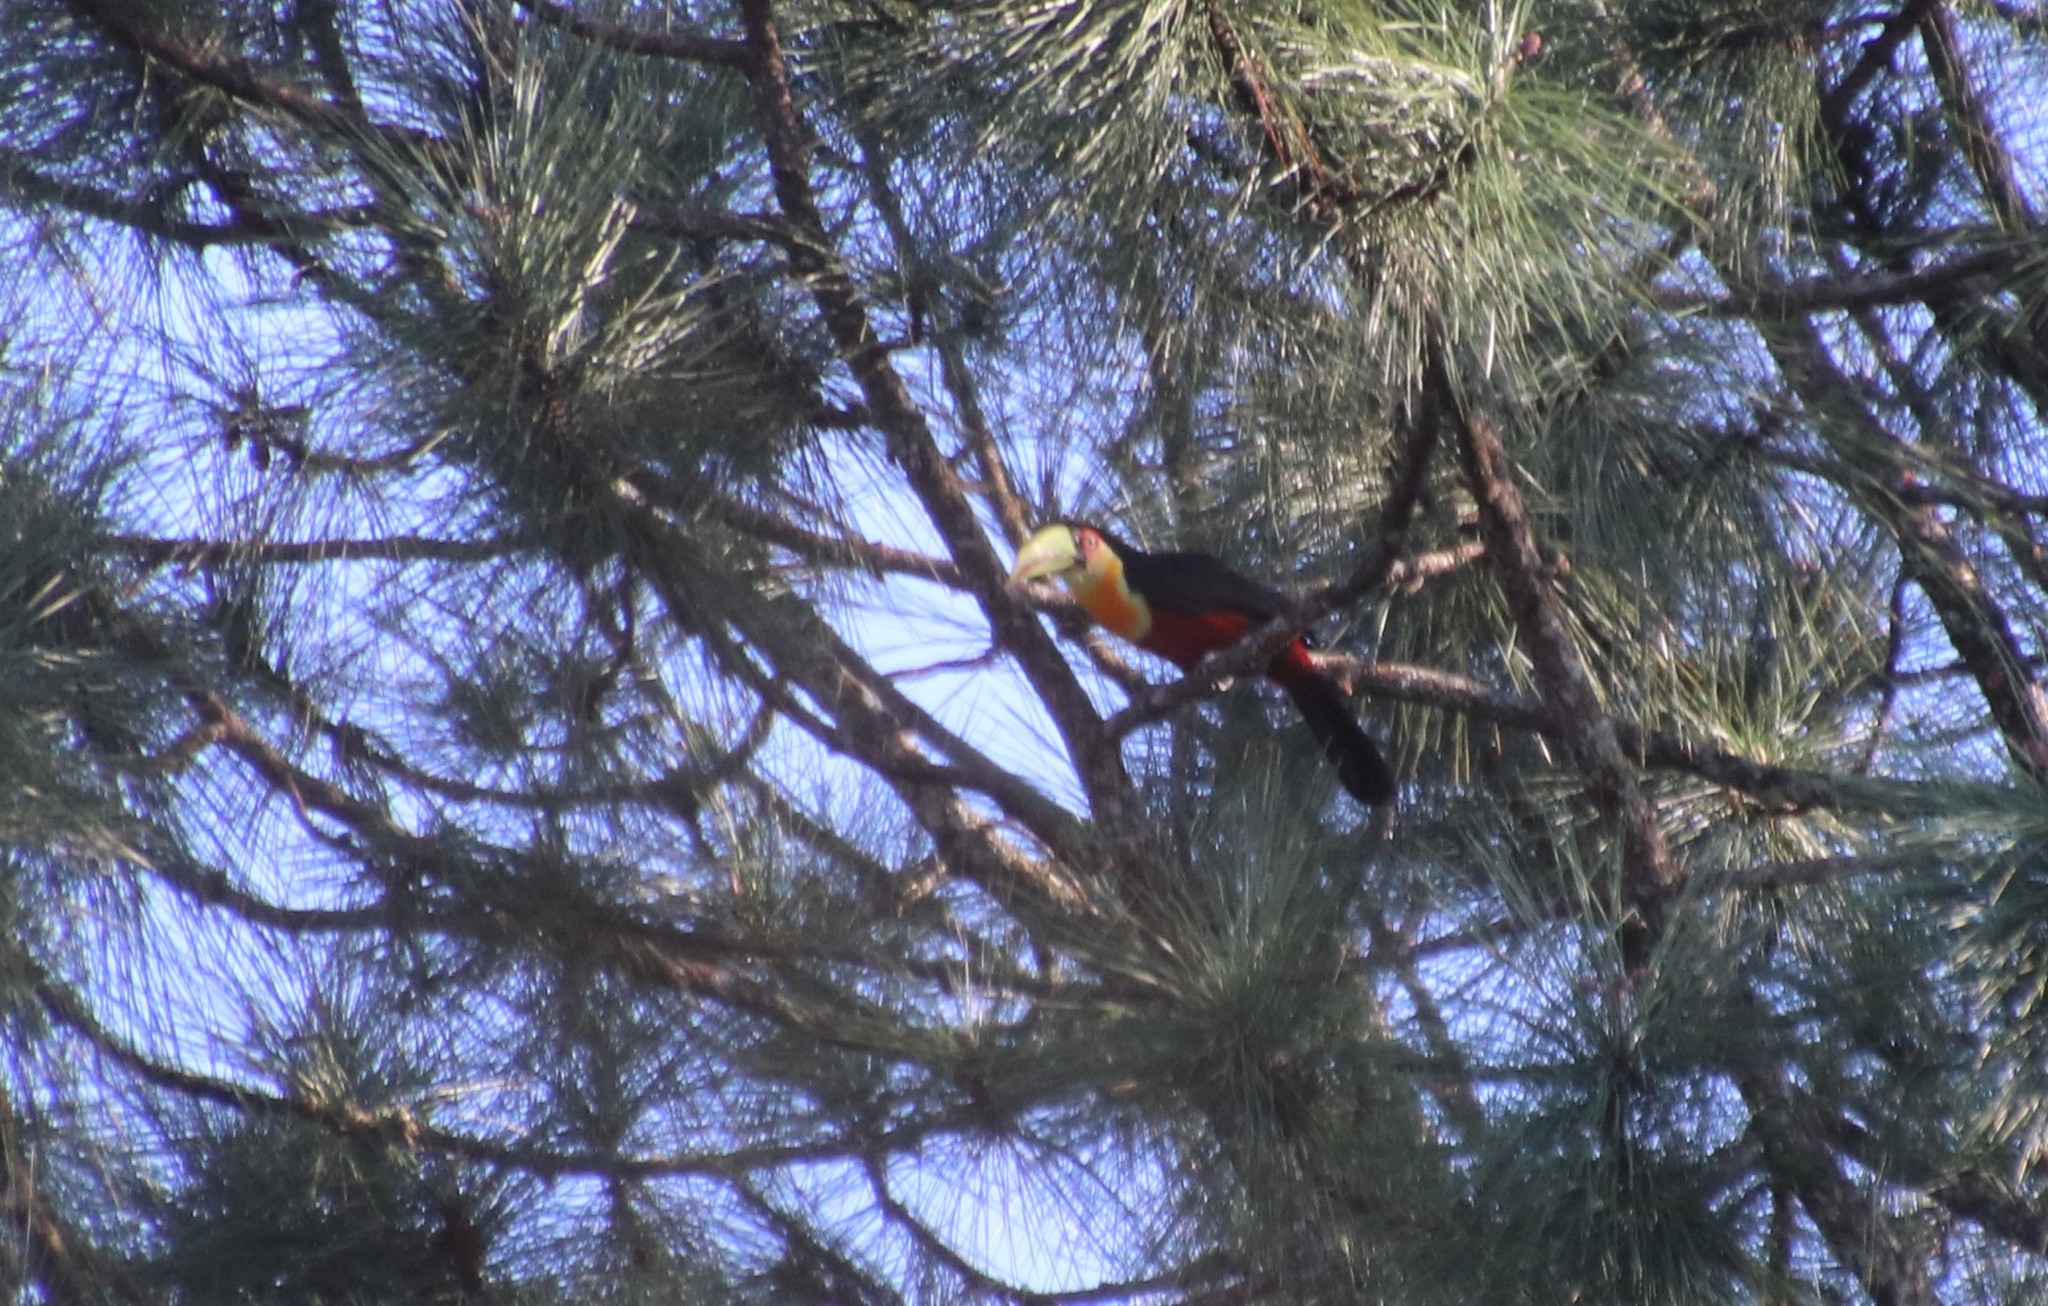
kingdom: Animalia
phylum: Chordata
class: Aves
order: Piciformes
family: Ramphastidae
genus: Ramphastos
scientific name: Ramphastos dicolorus
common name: Green-billed toucan
